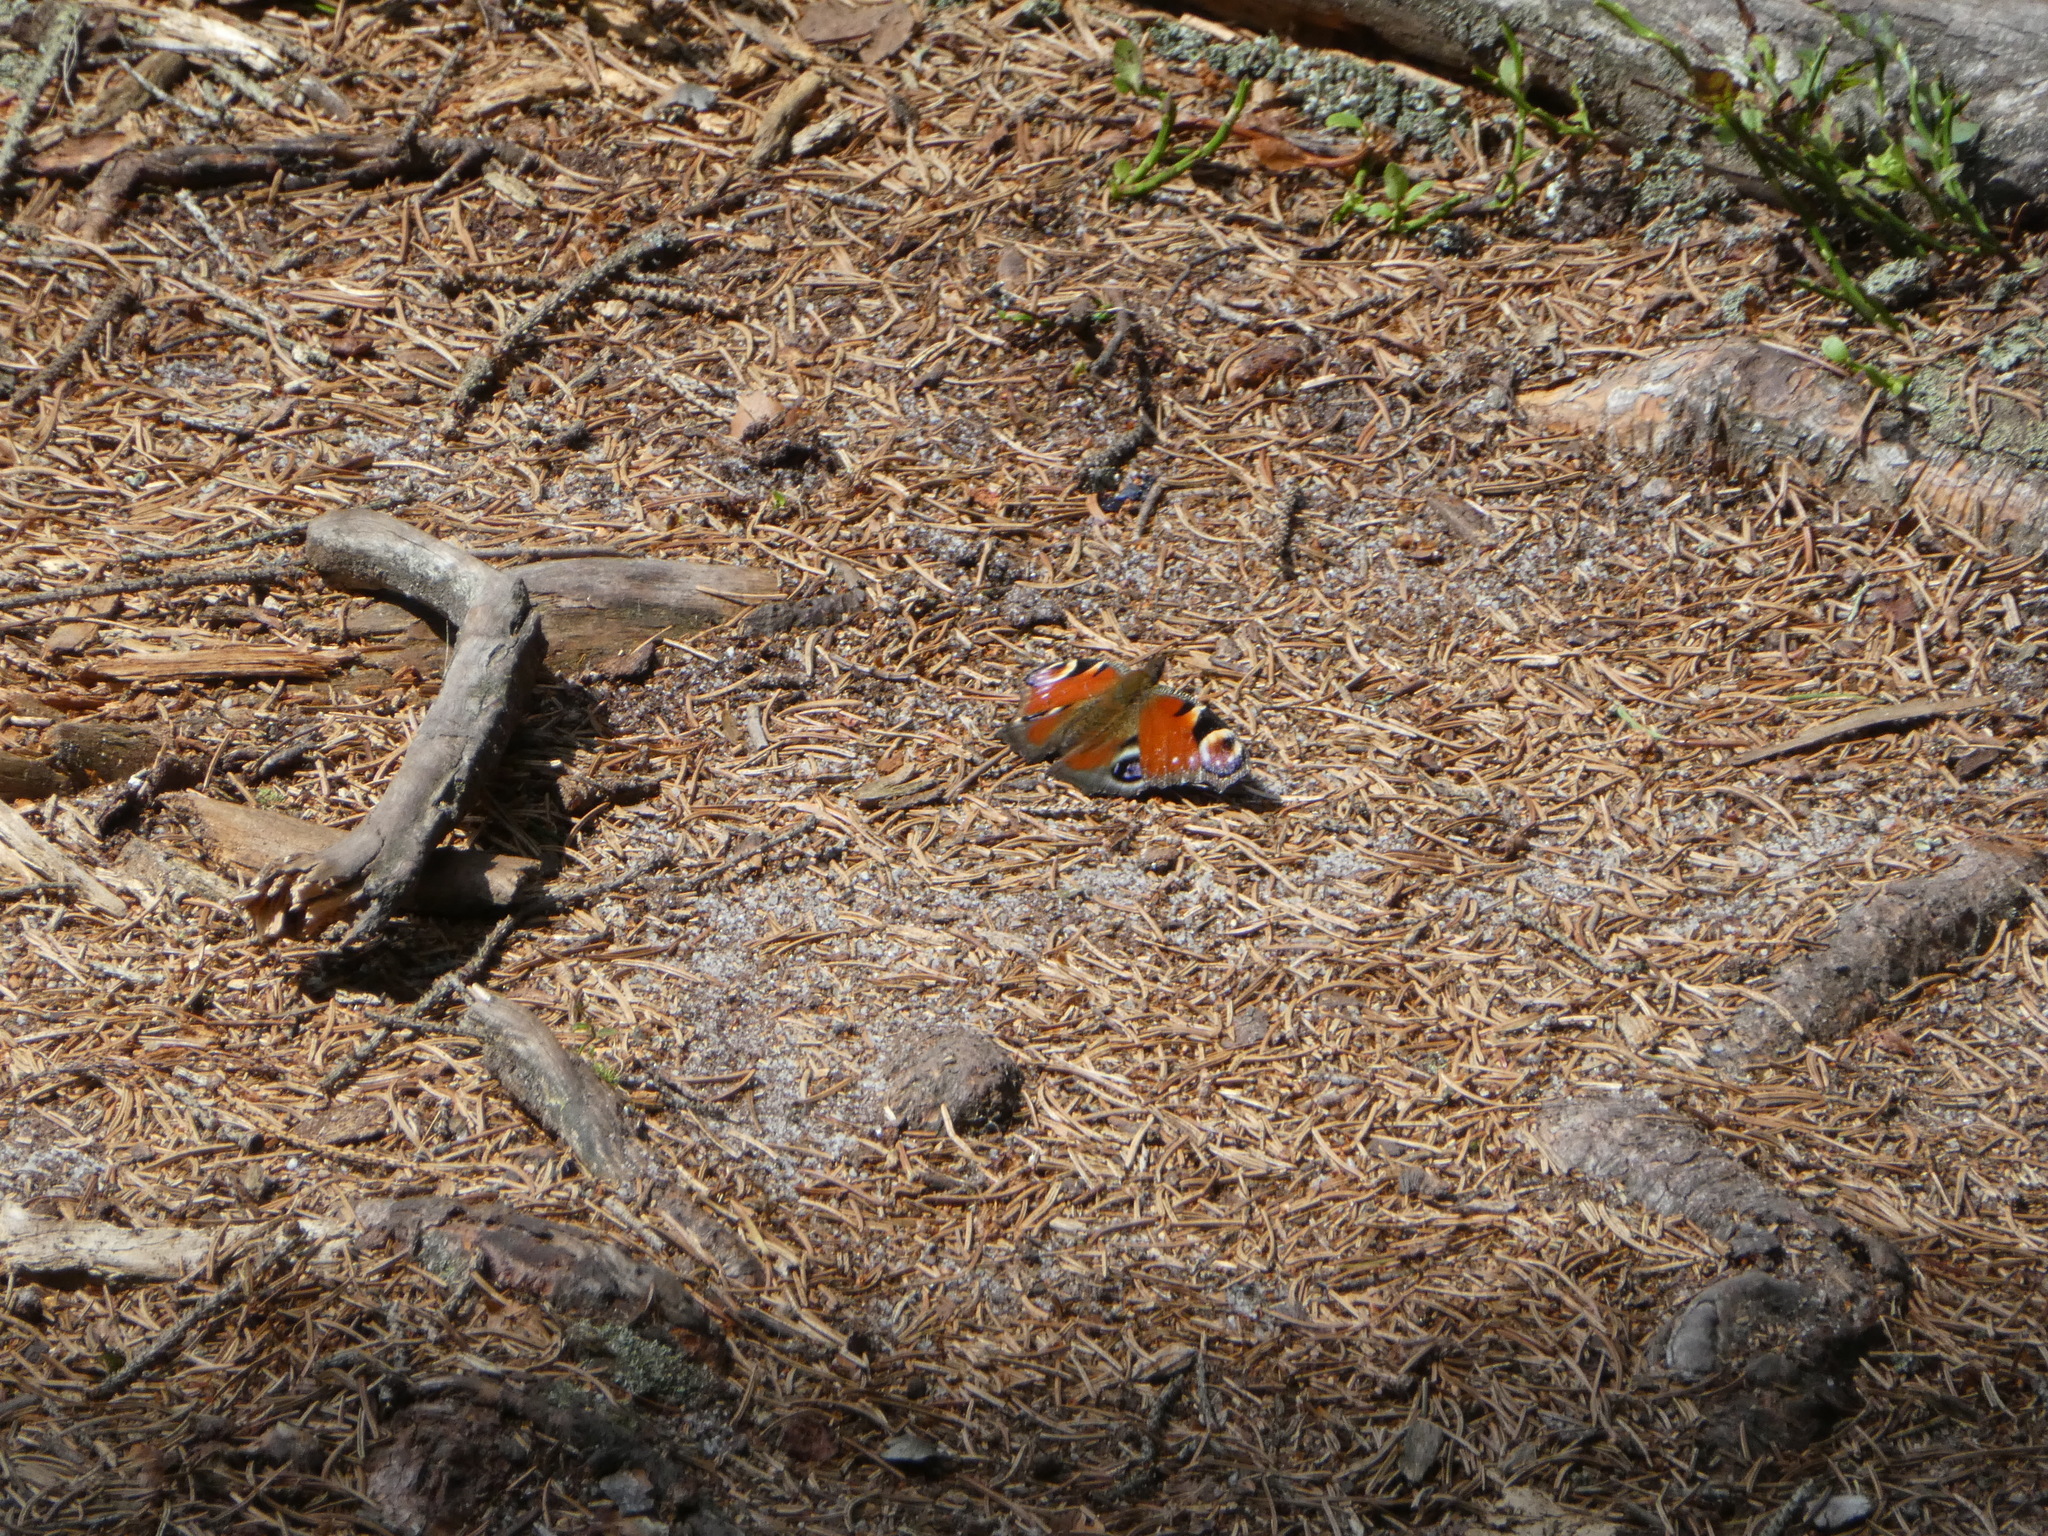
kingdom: Animalia
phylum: Arthropoda
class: Insecta
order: Lepidoptera
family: Nymphalidae
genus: Aglais
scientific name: Aglais io
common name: Peacock
